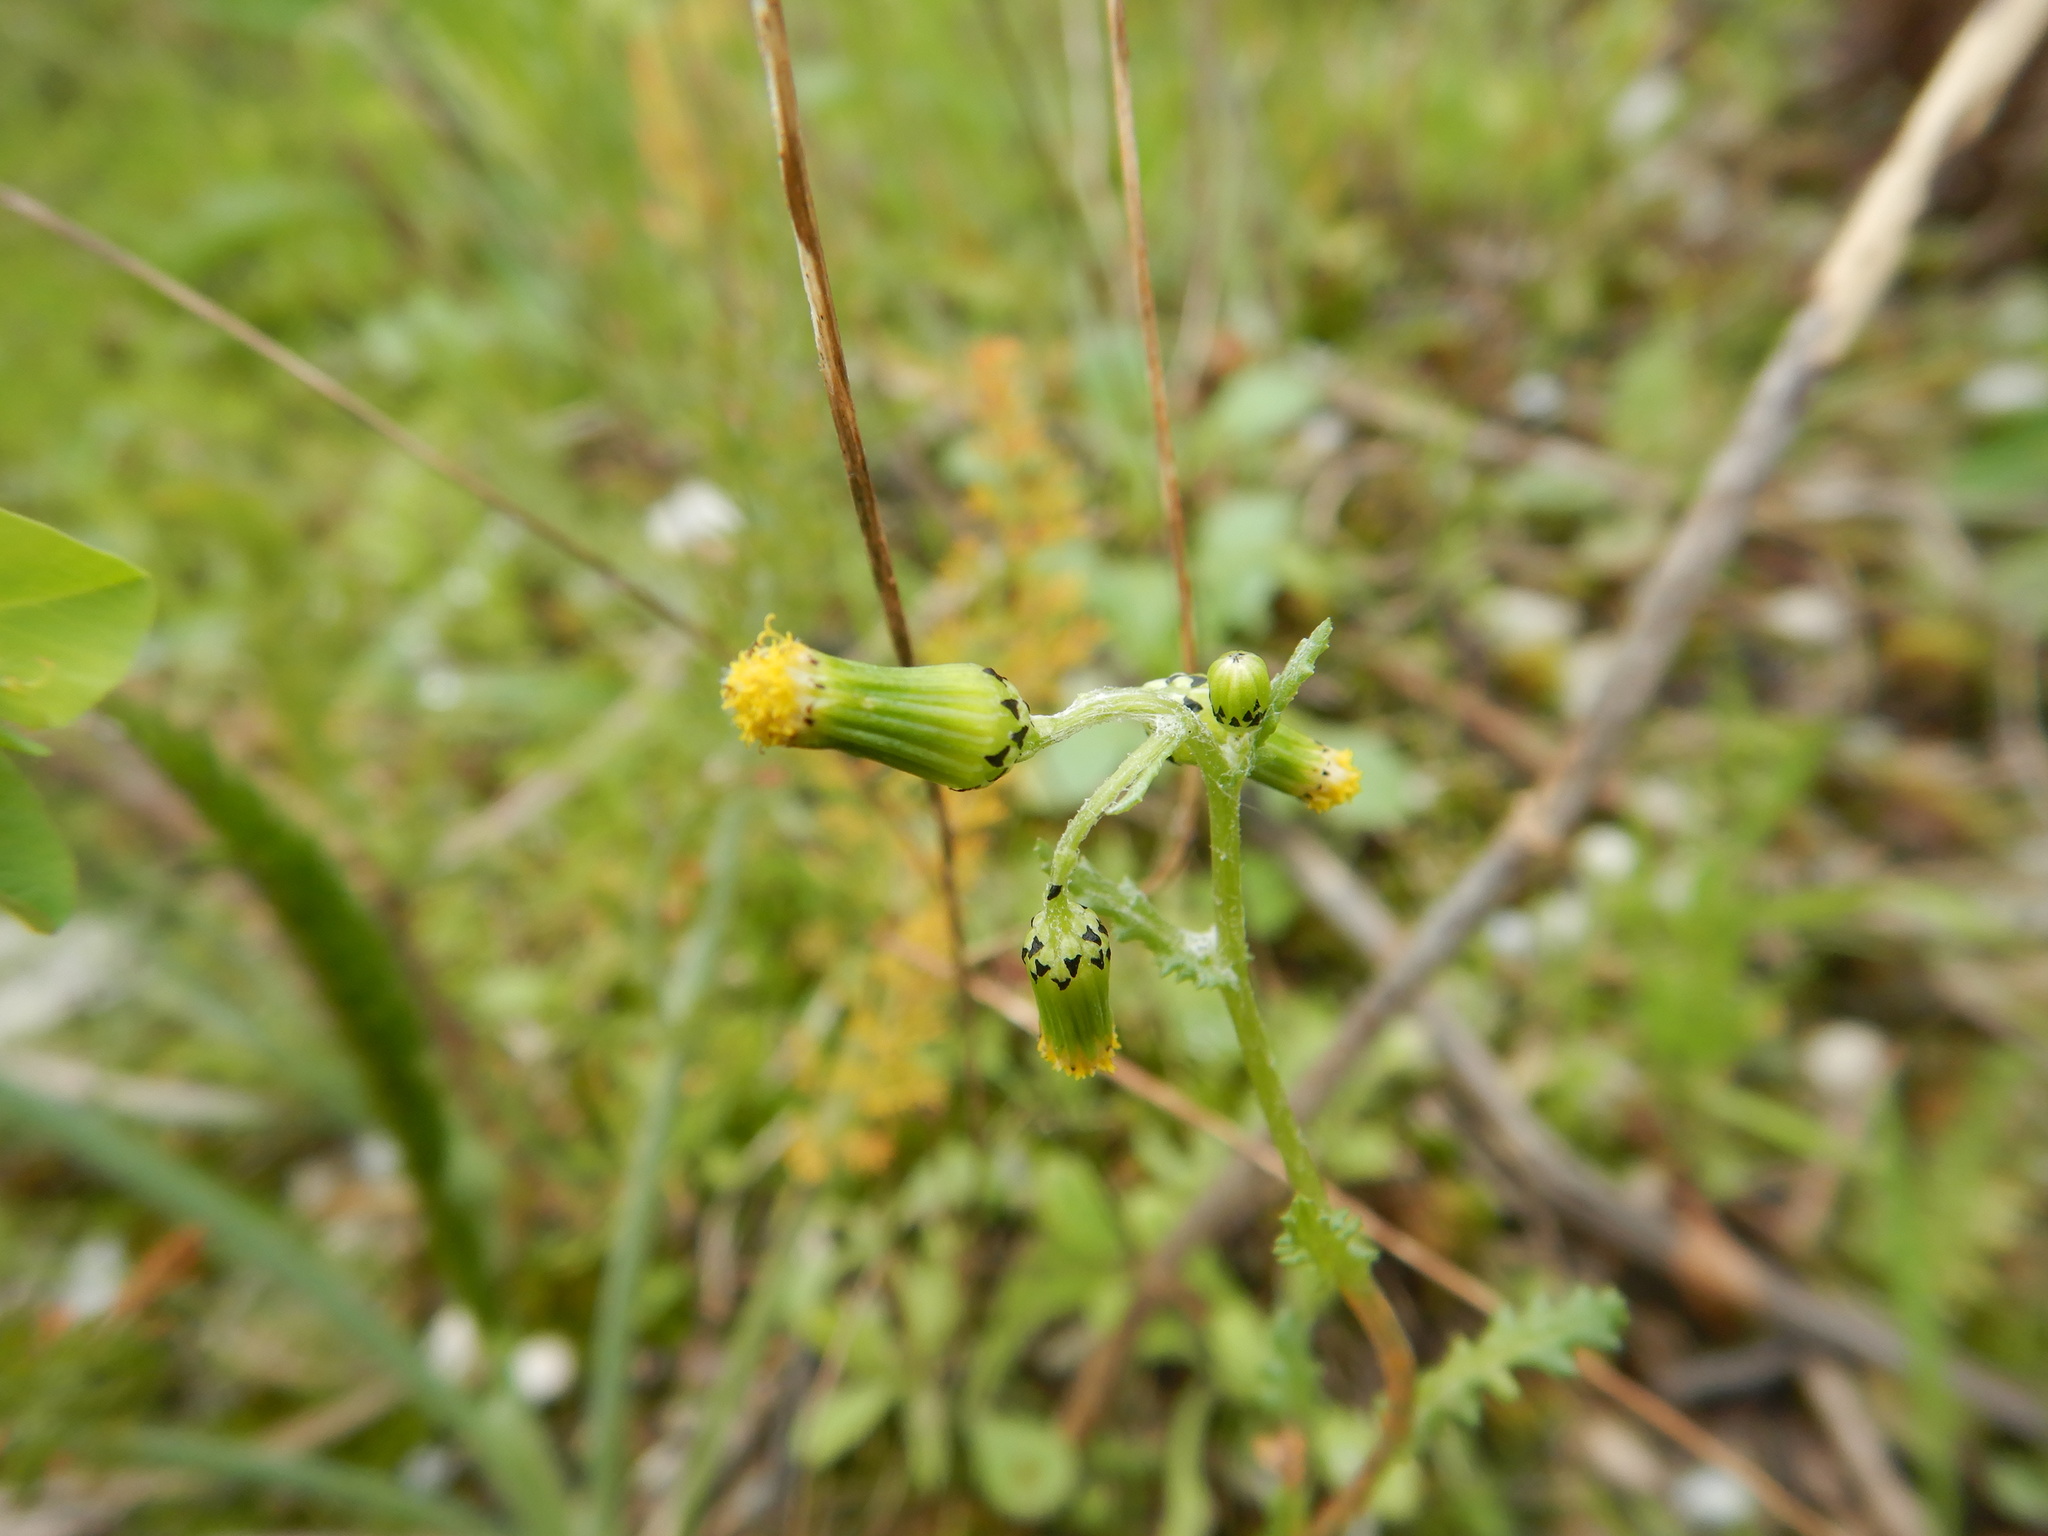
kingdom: Plantae
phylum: Tracheophyta
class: Magnoliopsida
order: Asterales
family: Asteraceae
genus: Senecio
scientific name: Senecio vulgaris
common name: Old-man-in-the-spring
